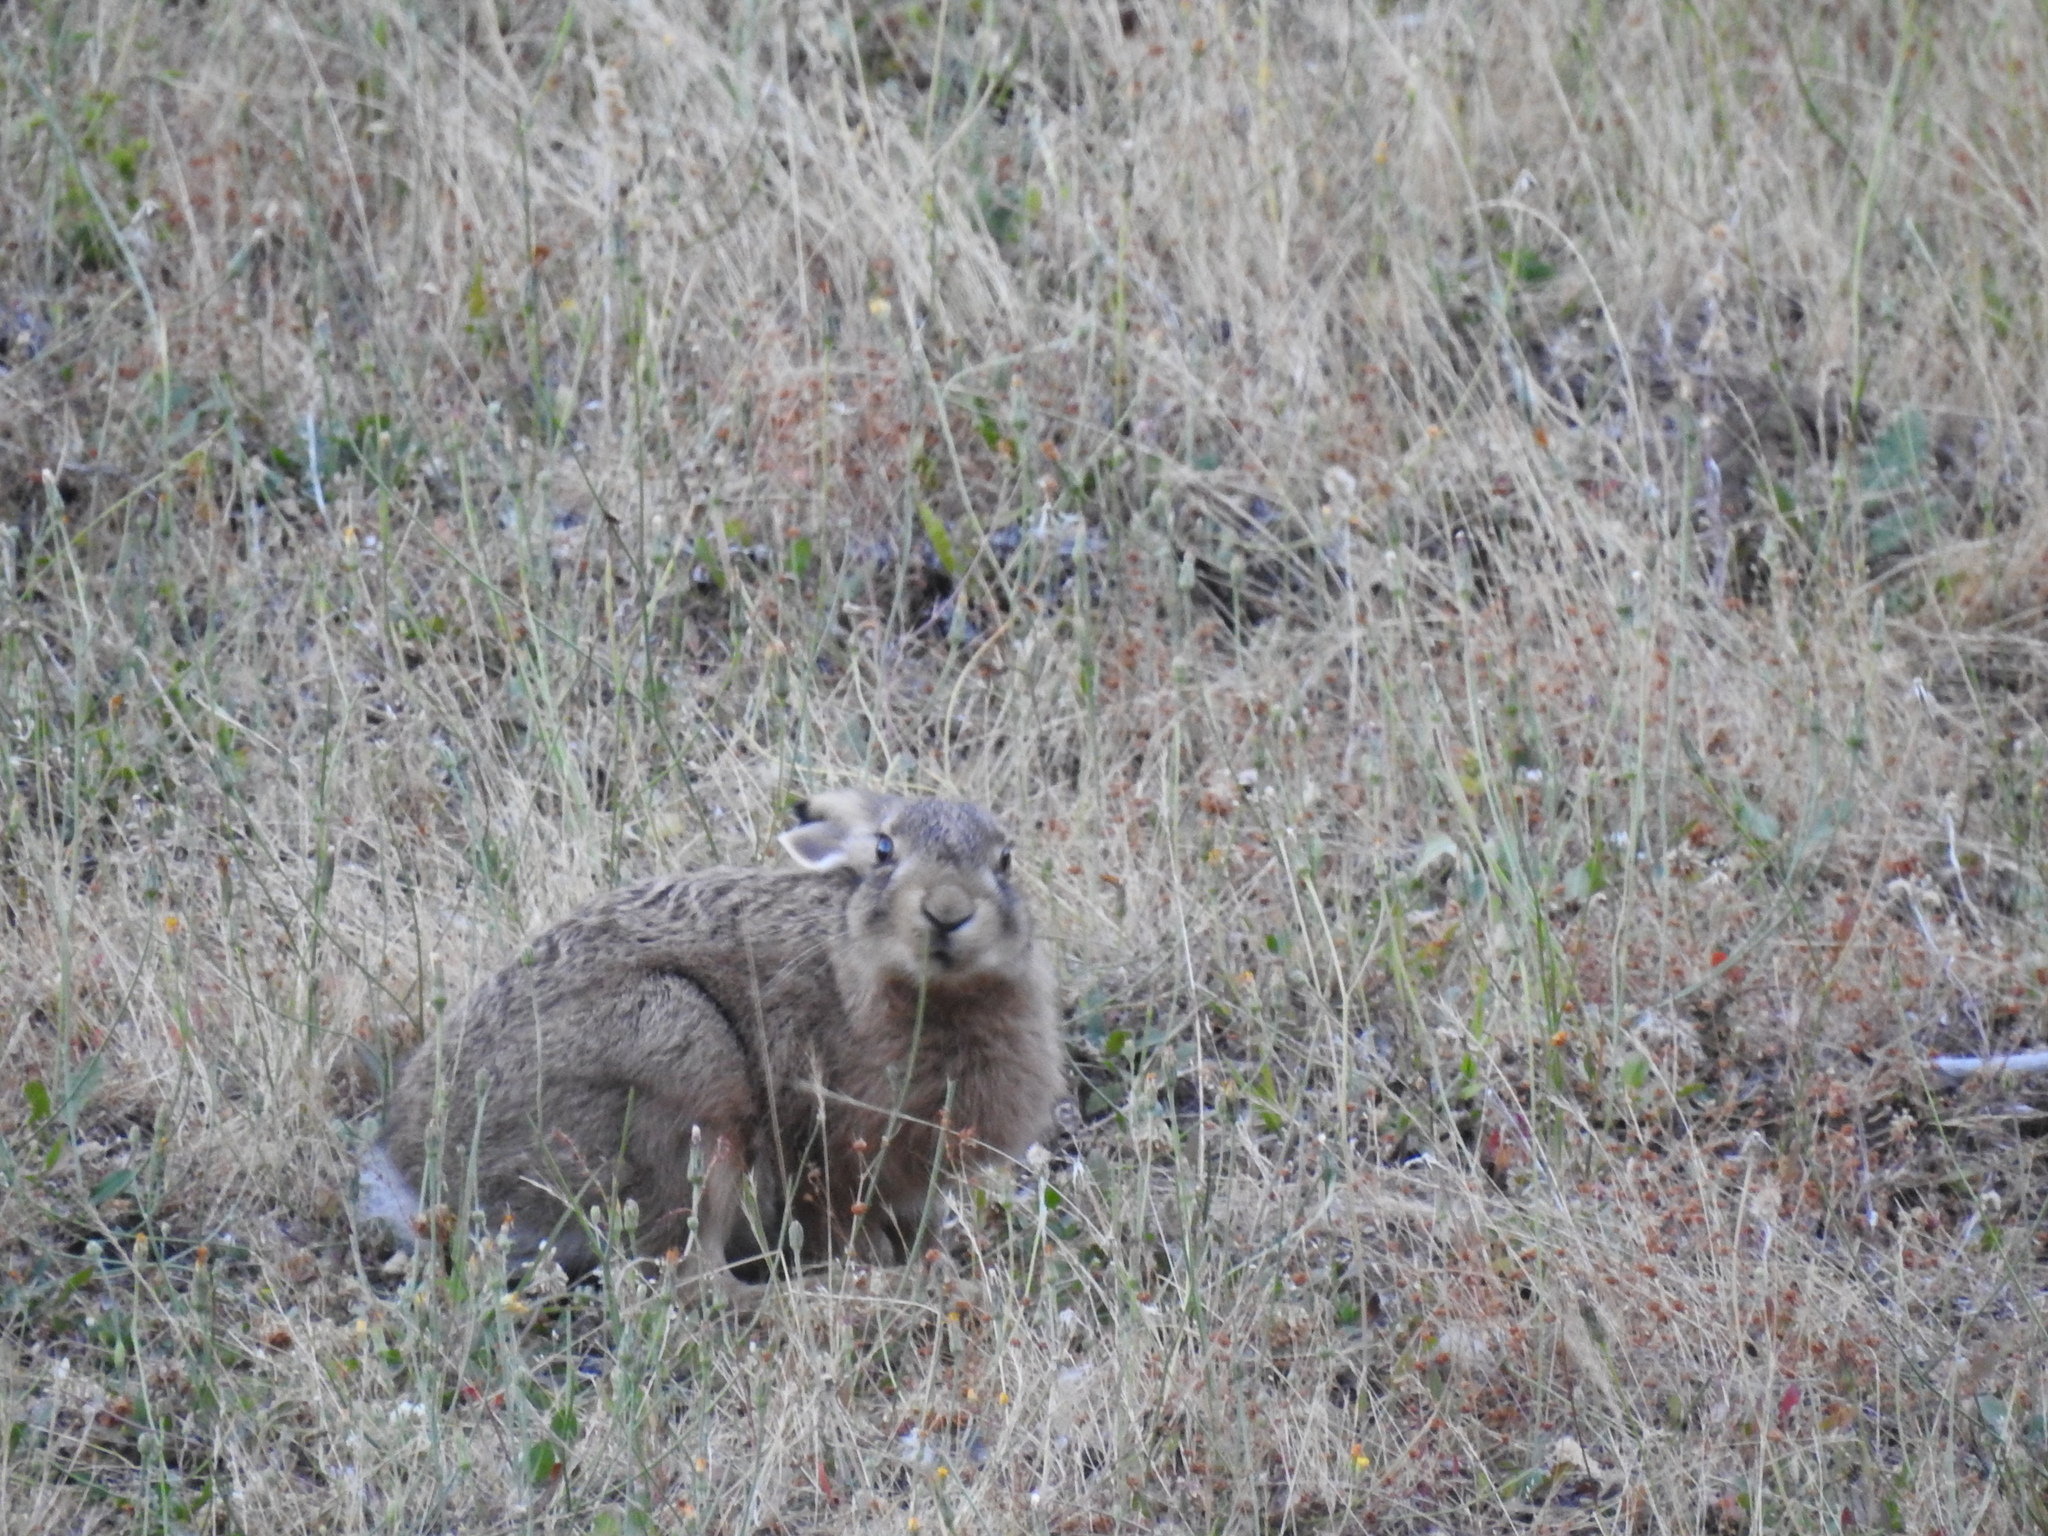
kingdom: Animalia
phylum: Chordata
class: Mammalia
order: Lagomorpha
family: Leporidae
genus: Lepus
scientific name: Lepus europaeus
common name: European hare
